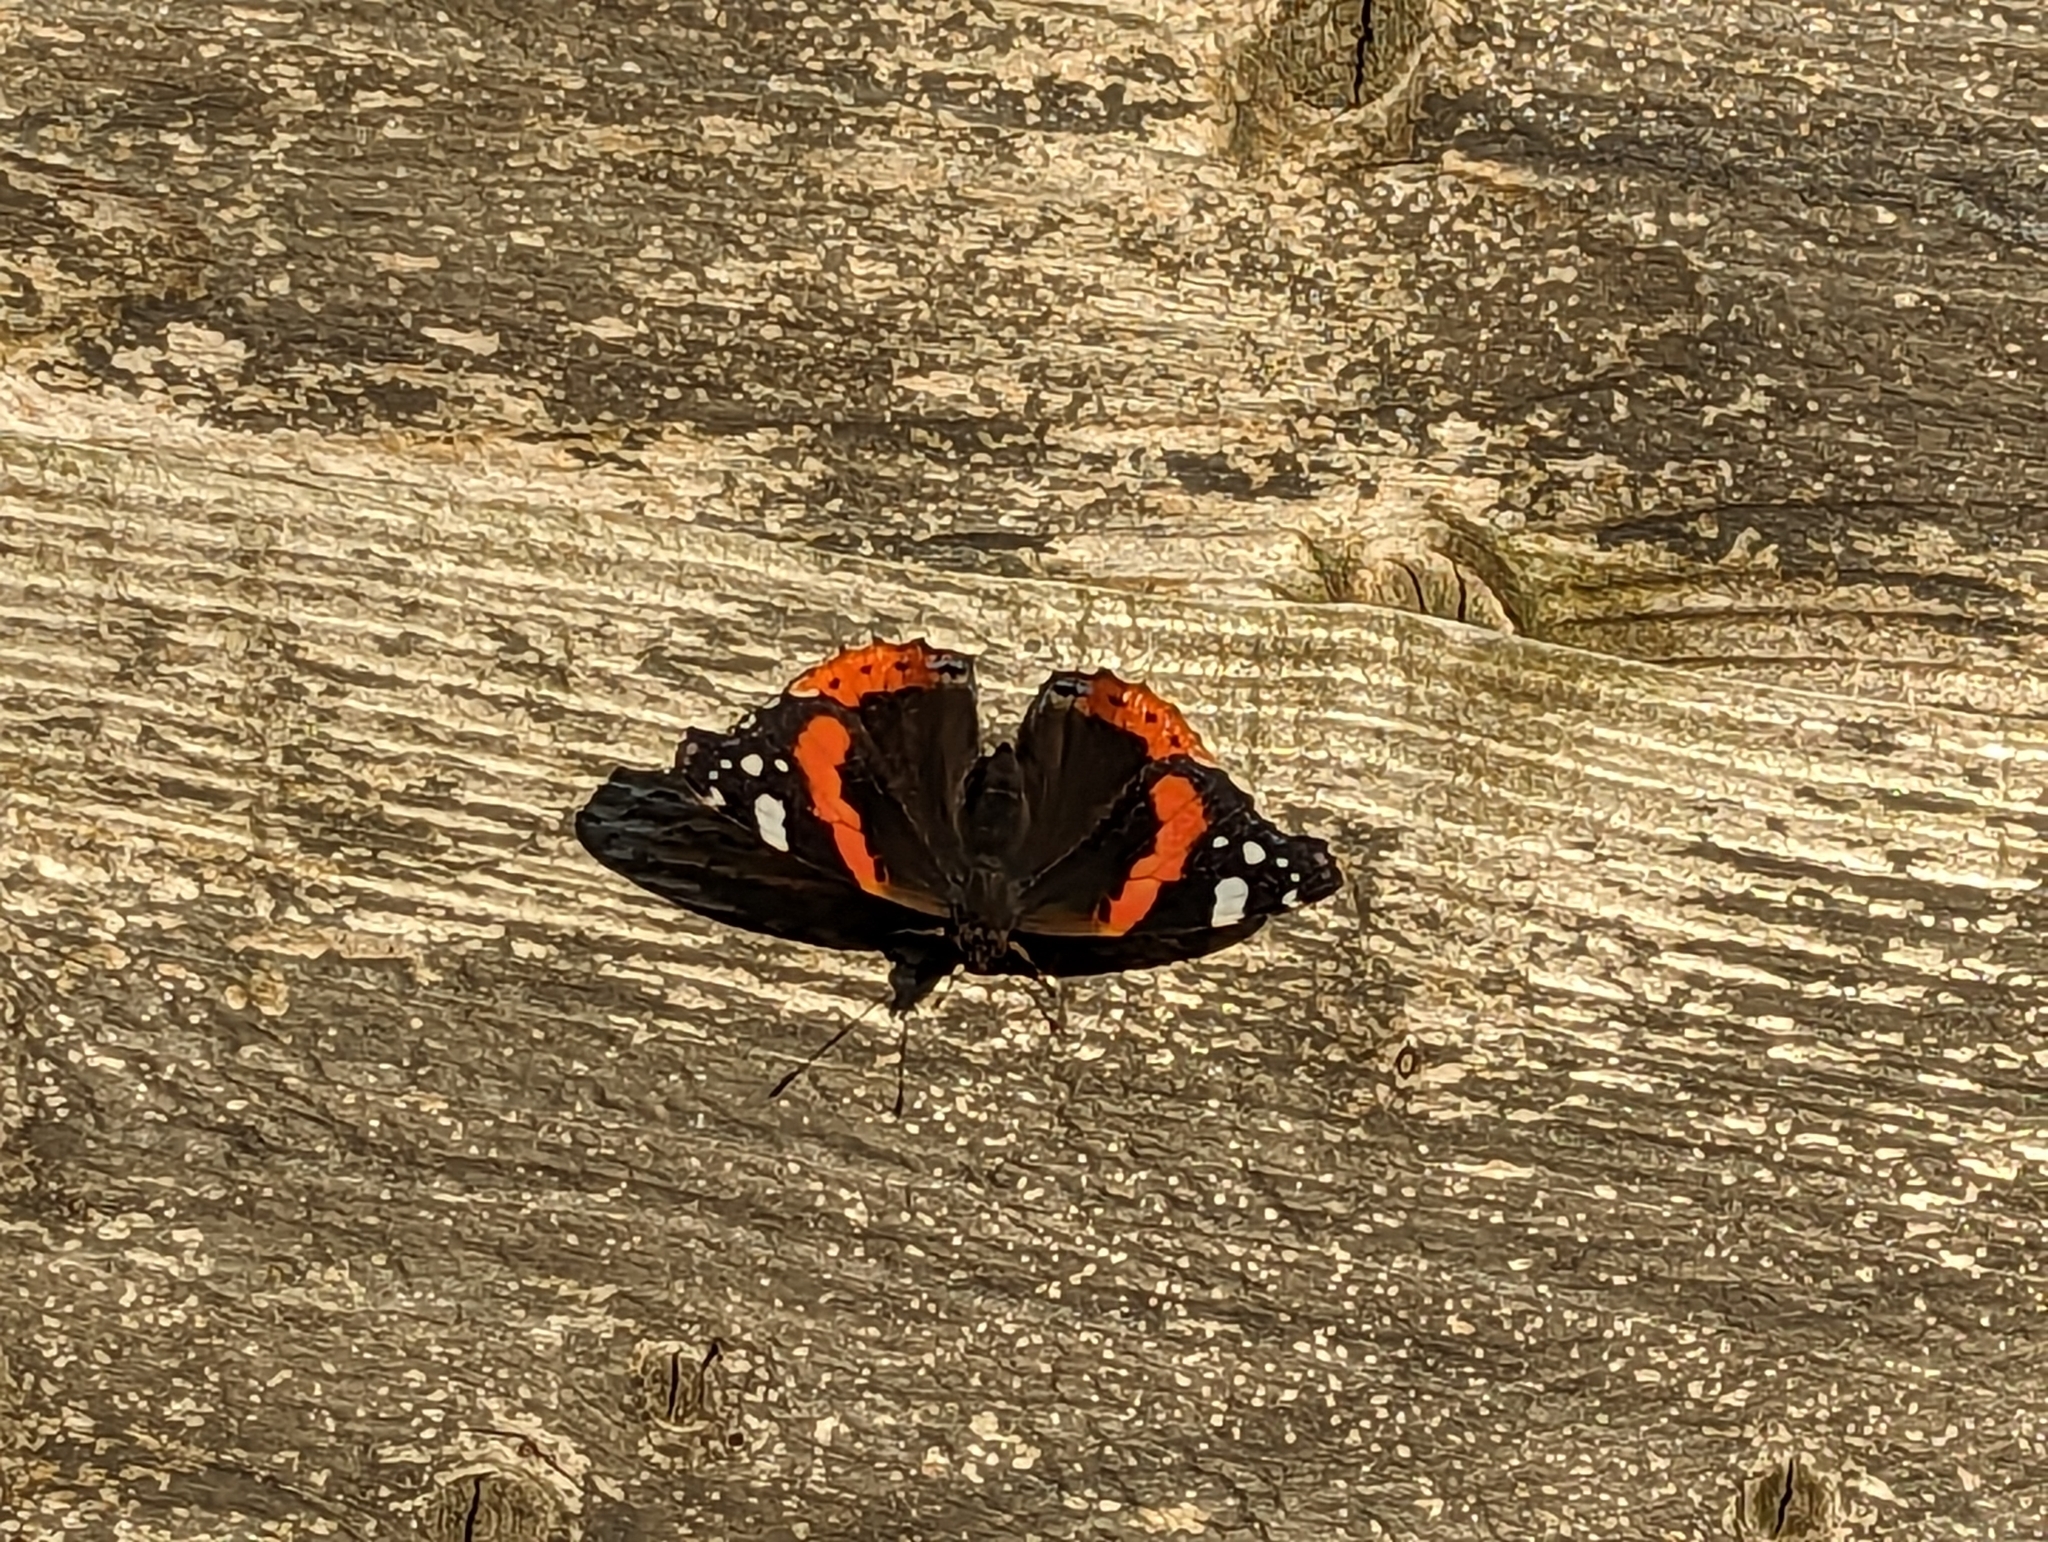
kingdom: Animalia
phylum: Arthropoda
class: Insecta
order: Lepidoptera
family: Nymphalidae
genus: Vanessa
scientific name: Vanessa atalanta
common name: Red admiral
